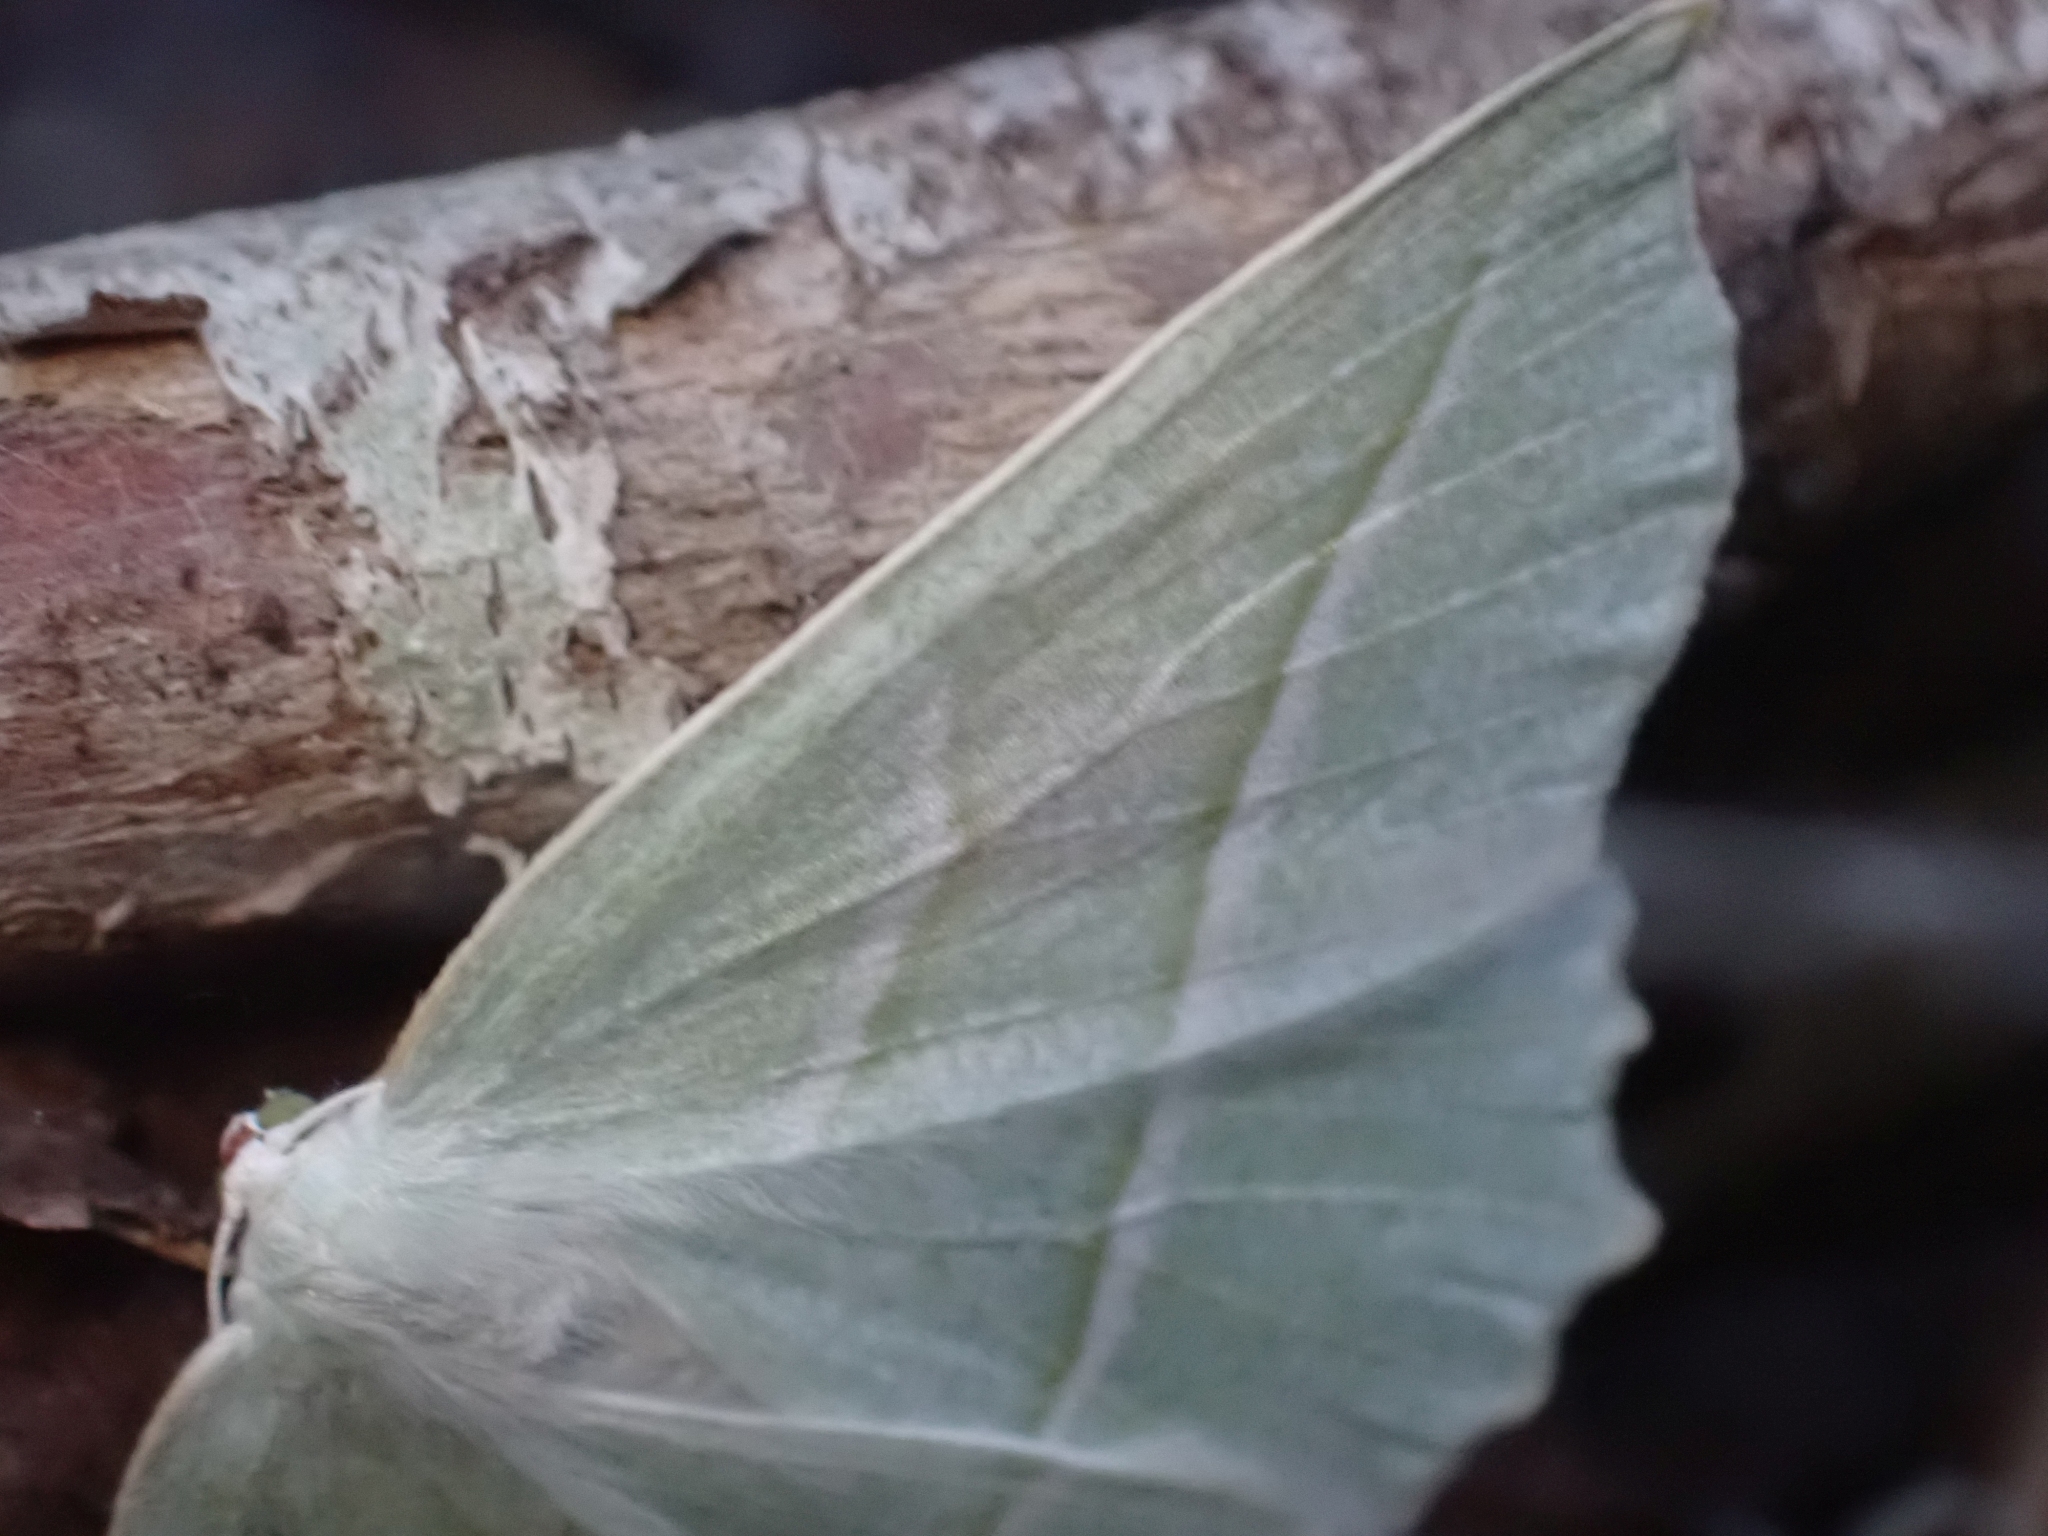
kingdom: Animalia
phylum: Arthropoda
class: Insecta
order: Lepidoptera
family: Geometridae
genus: Campaea
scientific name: Campaea perlata
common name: Fringed looper
